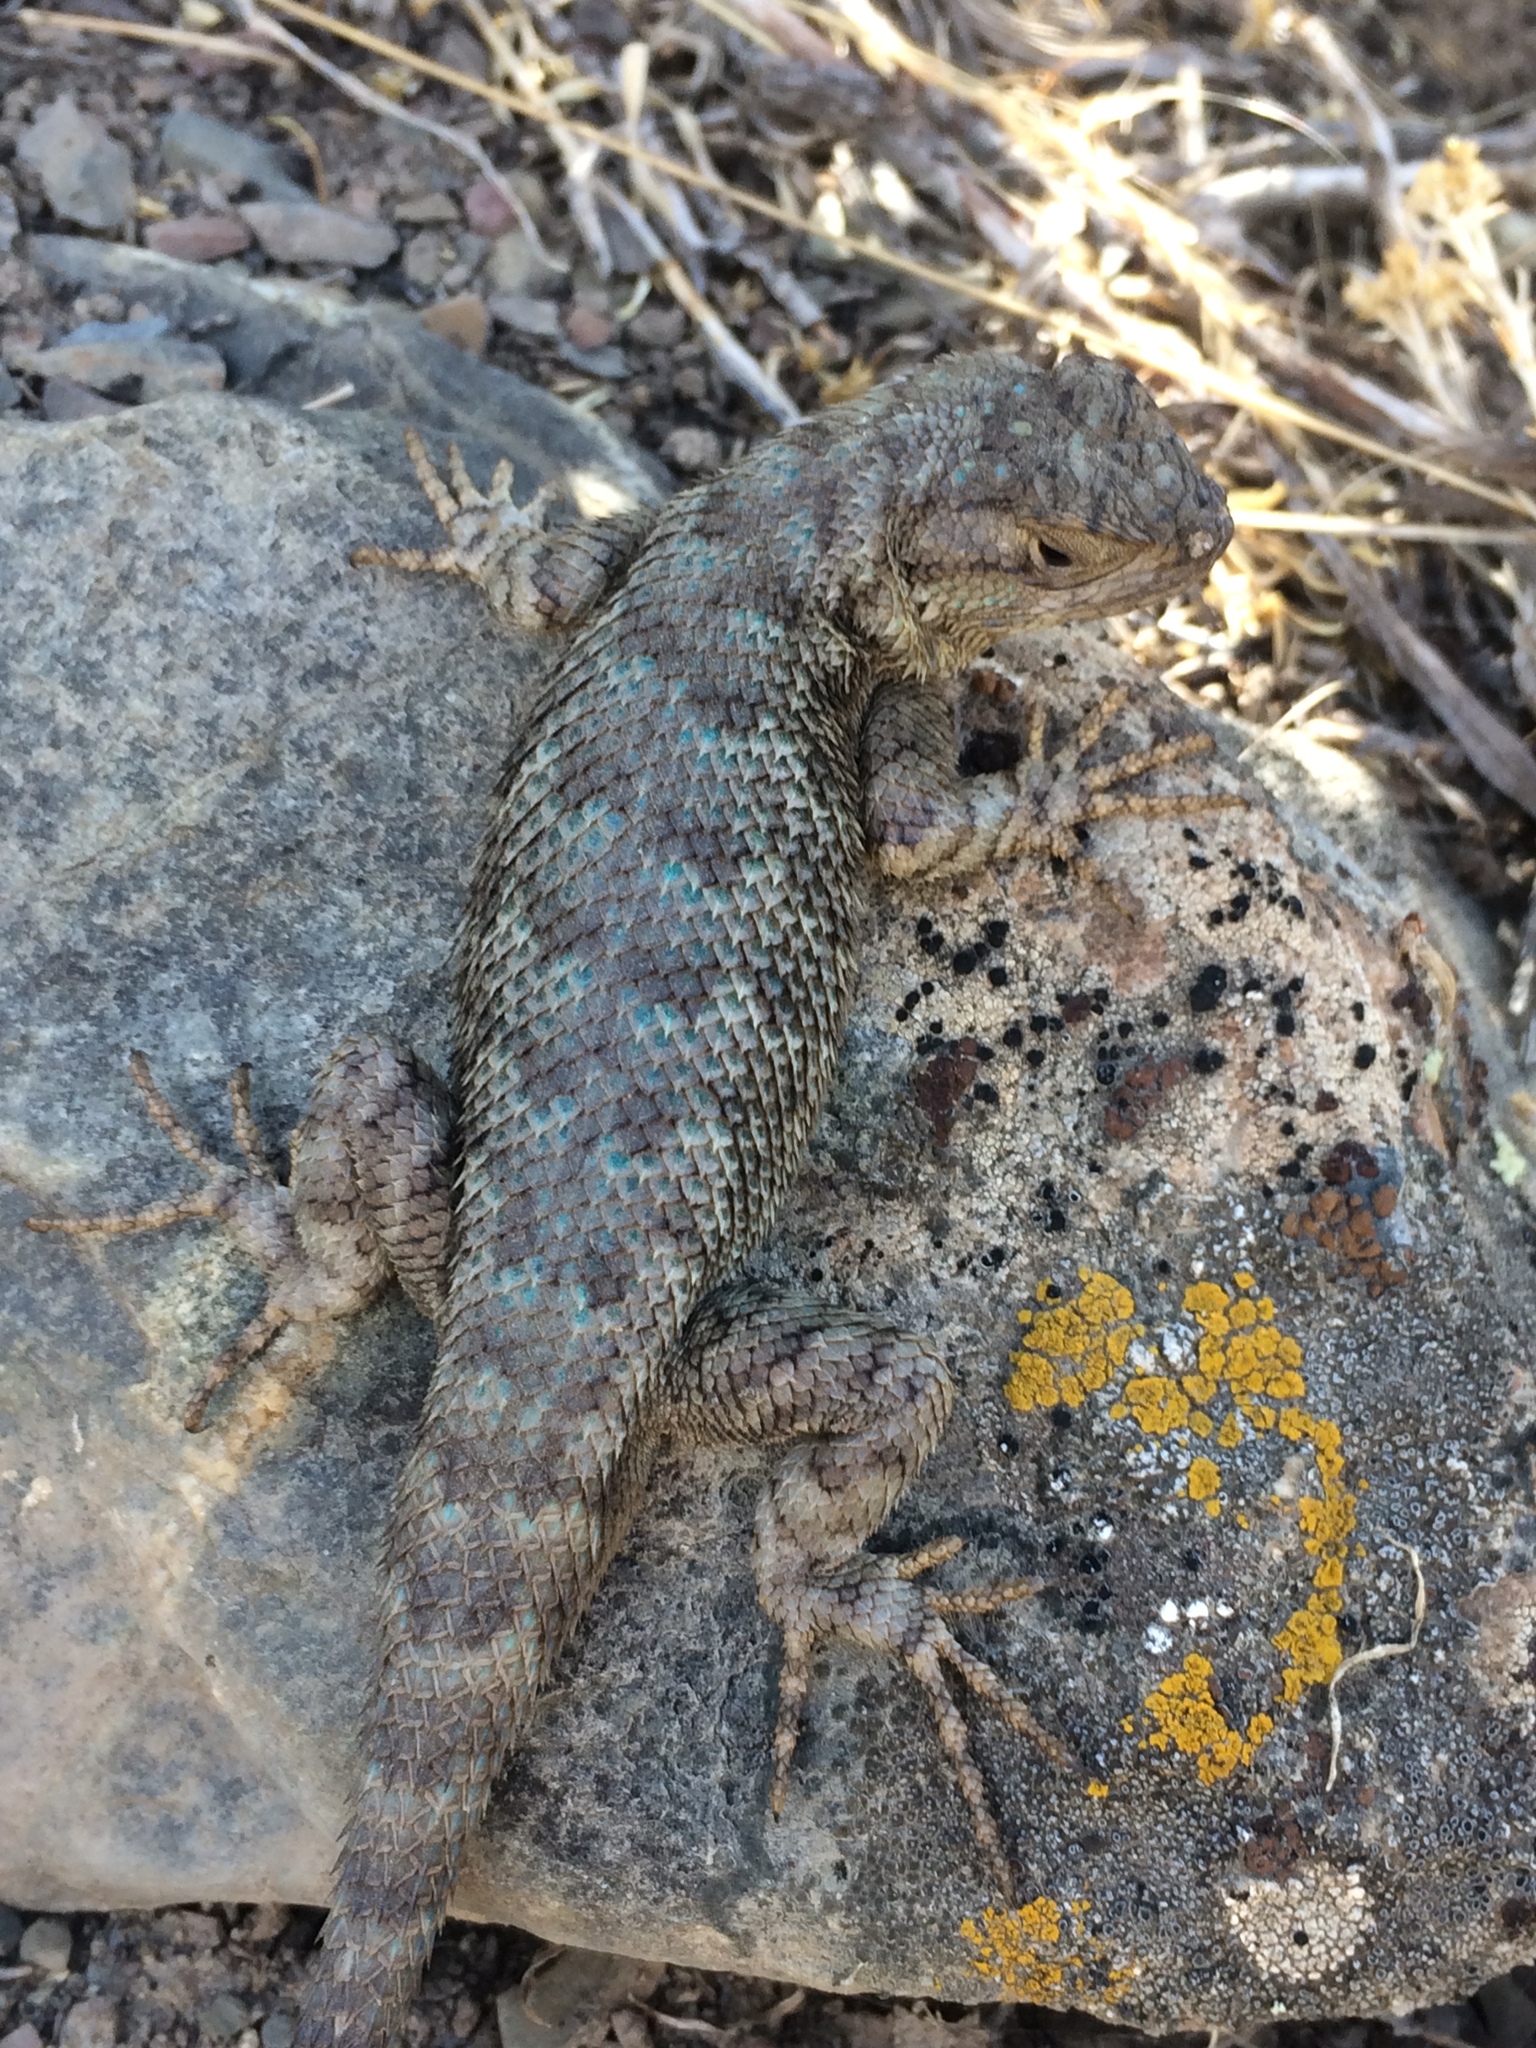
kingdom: Animalia
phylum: Chordata
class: Squamata
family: Phrynosomatidae
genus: Sceloporus
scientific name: Sceloporus occidentalis
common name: Western fence lizard
